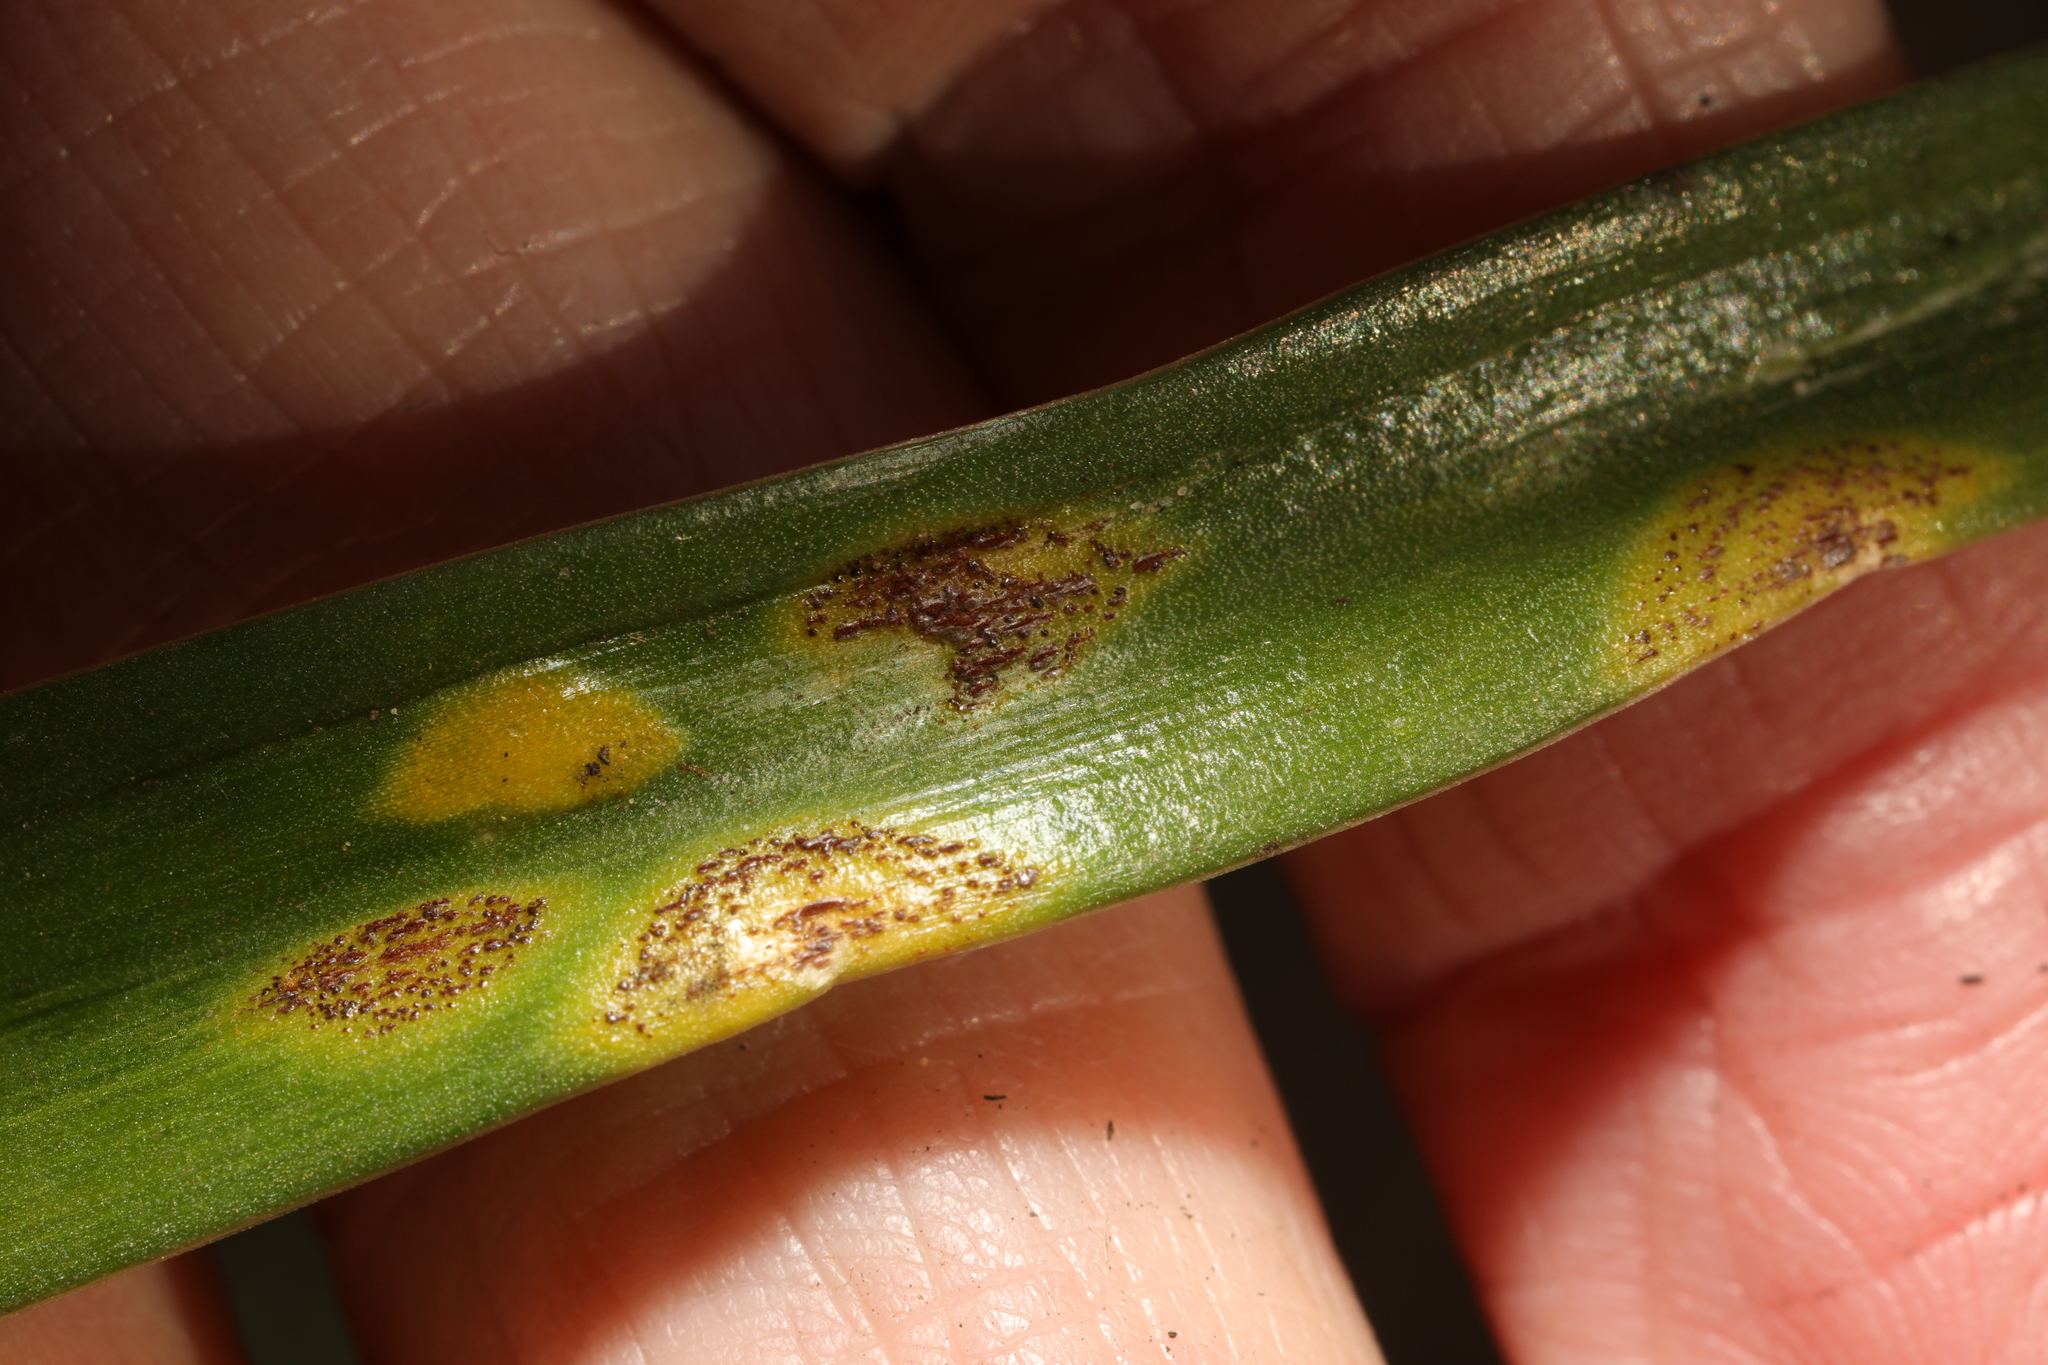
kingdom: Fungi
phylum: Basidiomycota
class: Pucciniomycetes
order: Pucciniales
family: Pucciniaceae
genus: Uromyces
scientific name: Uromyces hyacinthi
